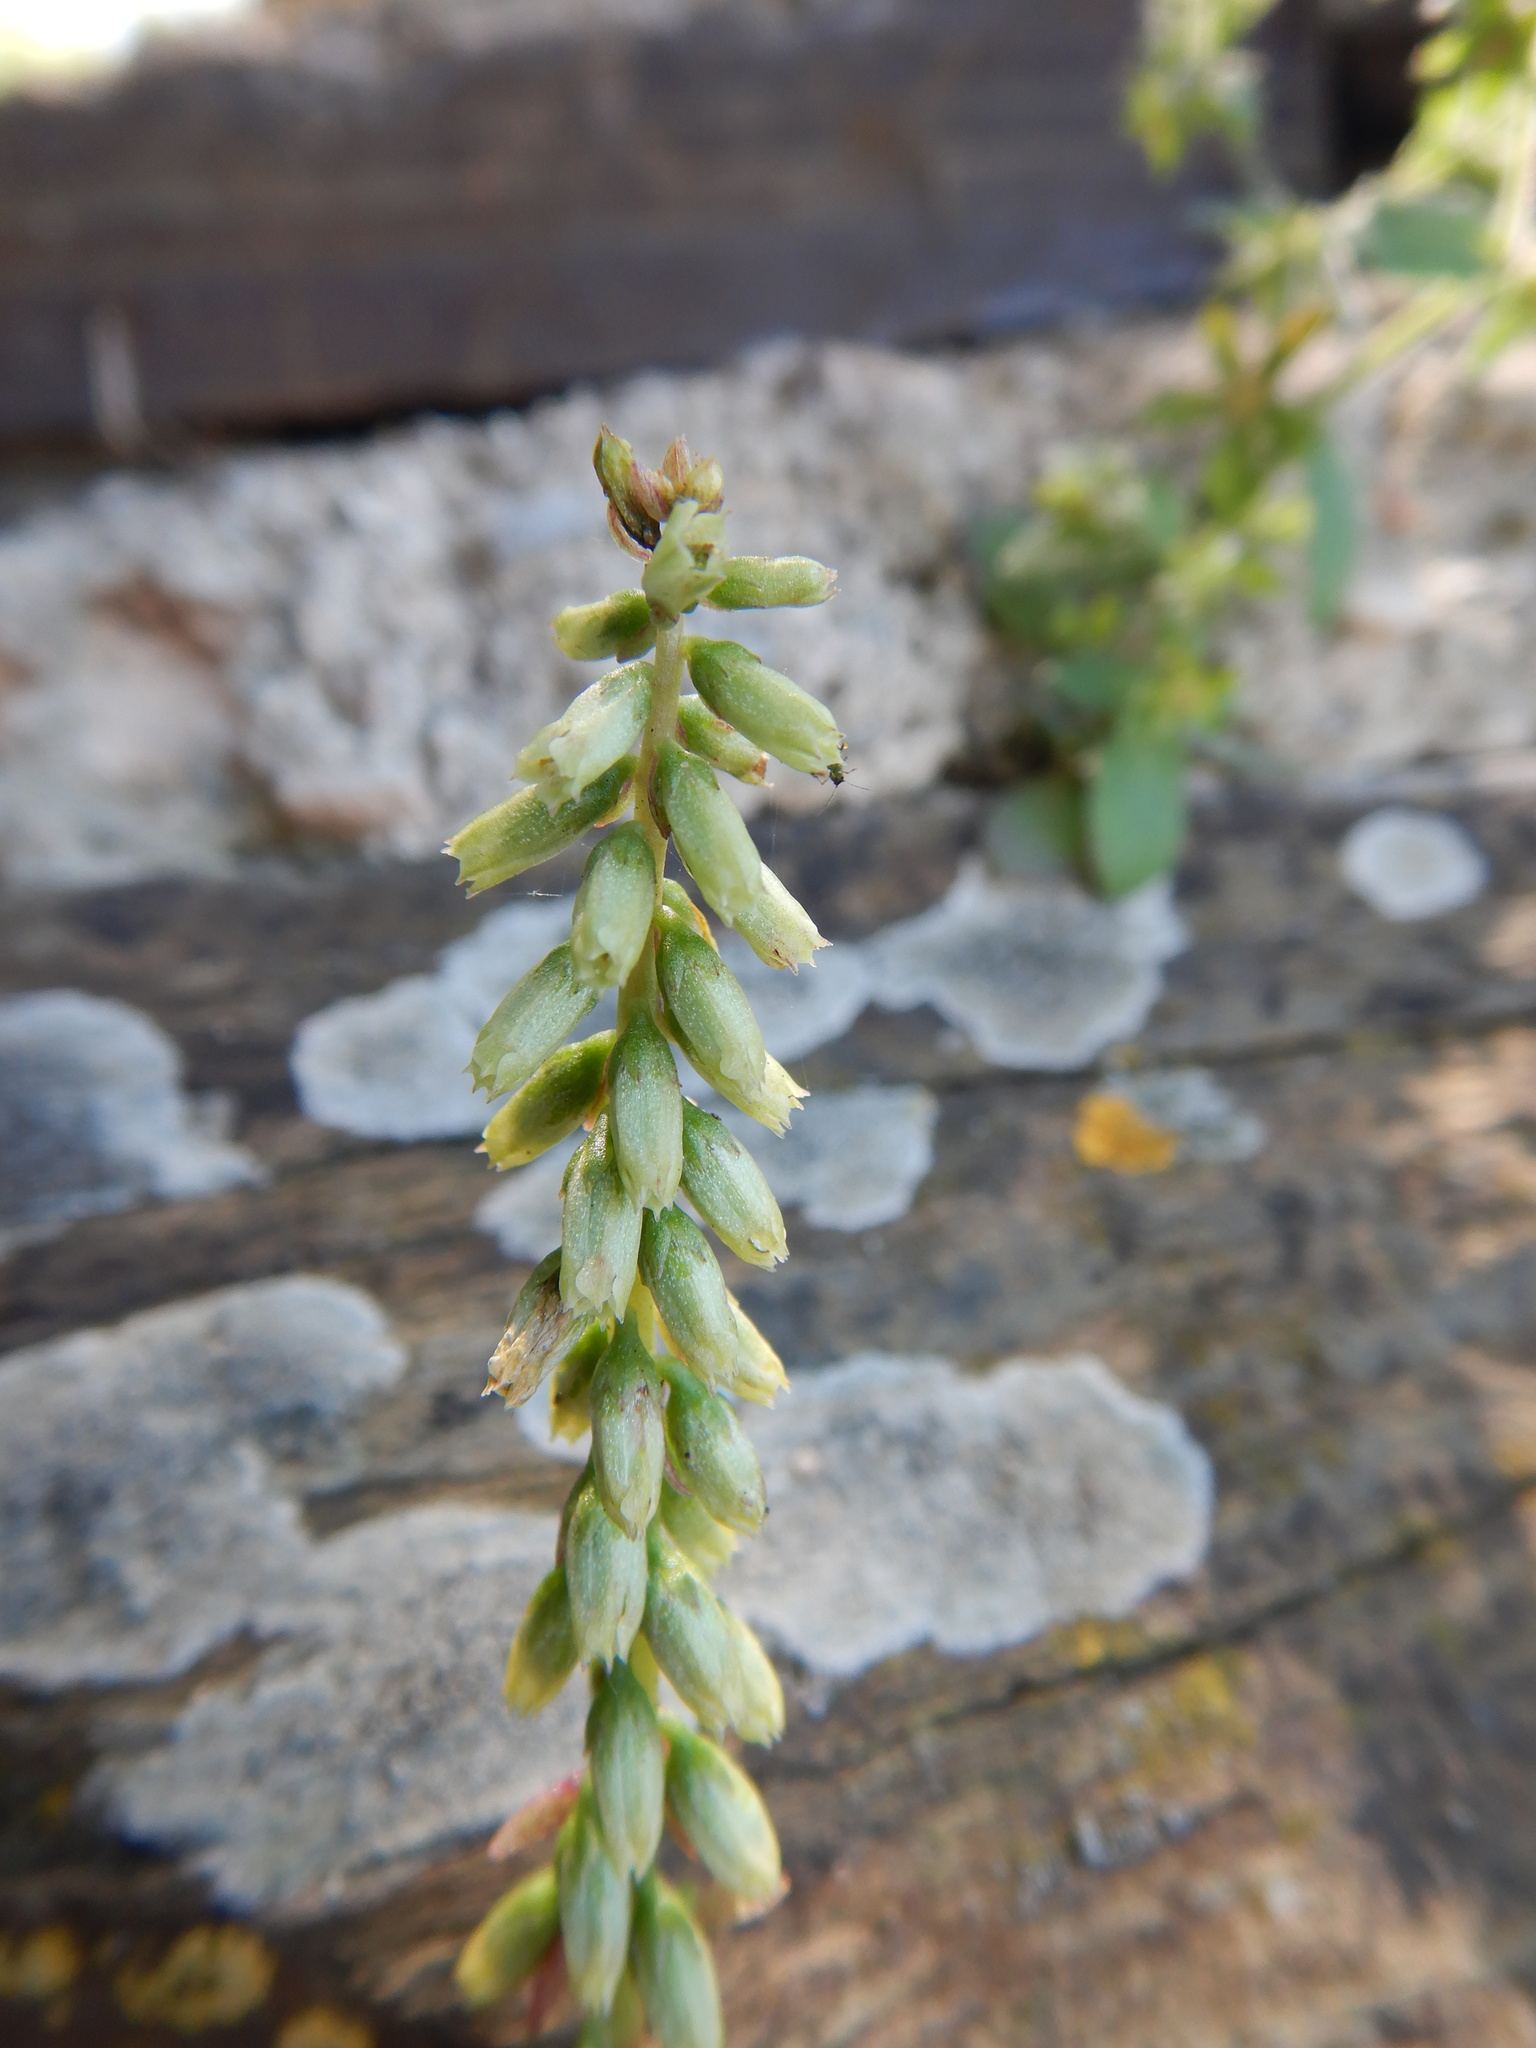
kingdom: Plantae
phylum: Tracheophyta
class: Magnoliopsida
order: Saxifragales
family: Crassulaceae
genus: Umbilicus
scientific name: Umbilicus rupestris
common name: Navelwort
